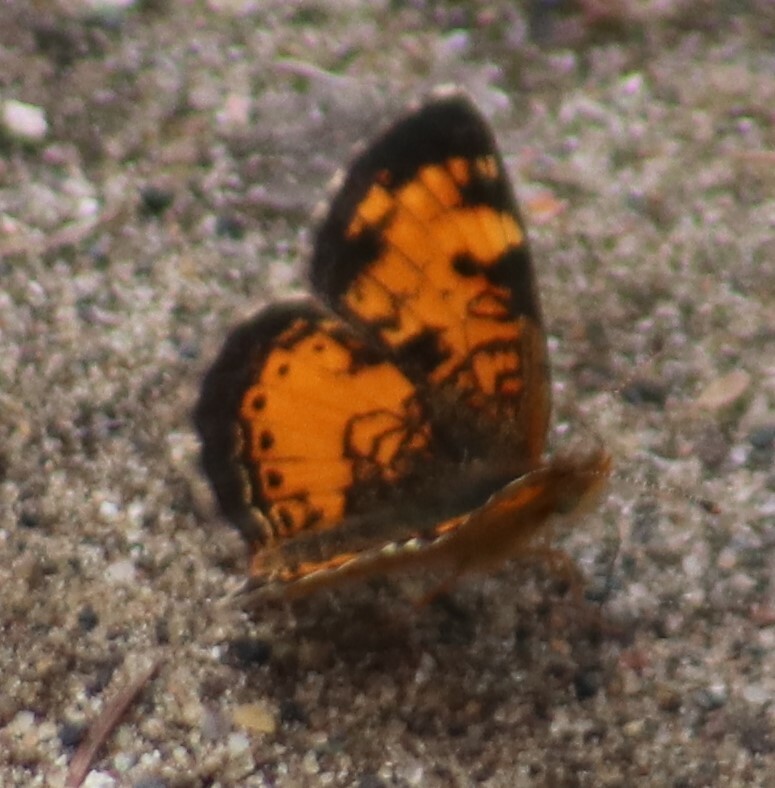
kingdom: Animalia
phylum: Arthropoda
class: Insecta
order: Lepidoptera
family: Nymphalidae
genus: Phyciodes
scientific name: Phyciodes tharos
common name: Pearl crescent
